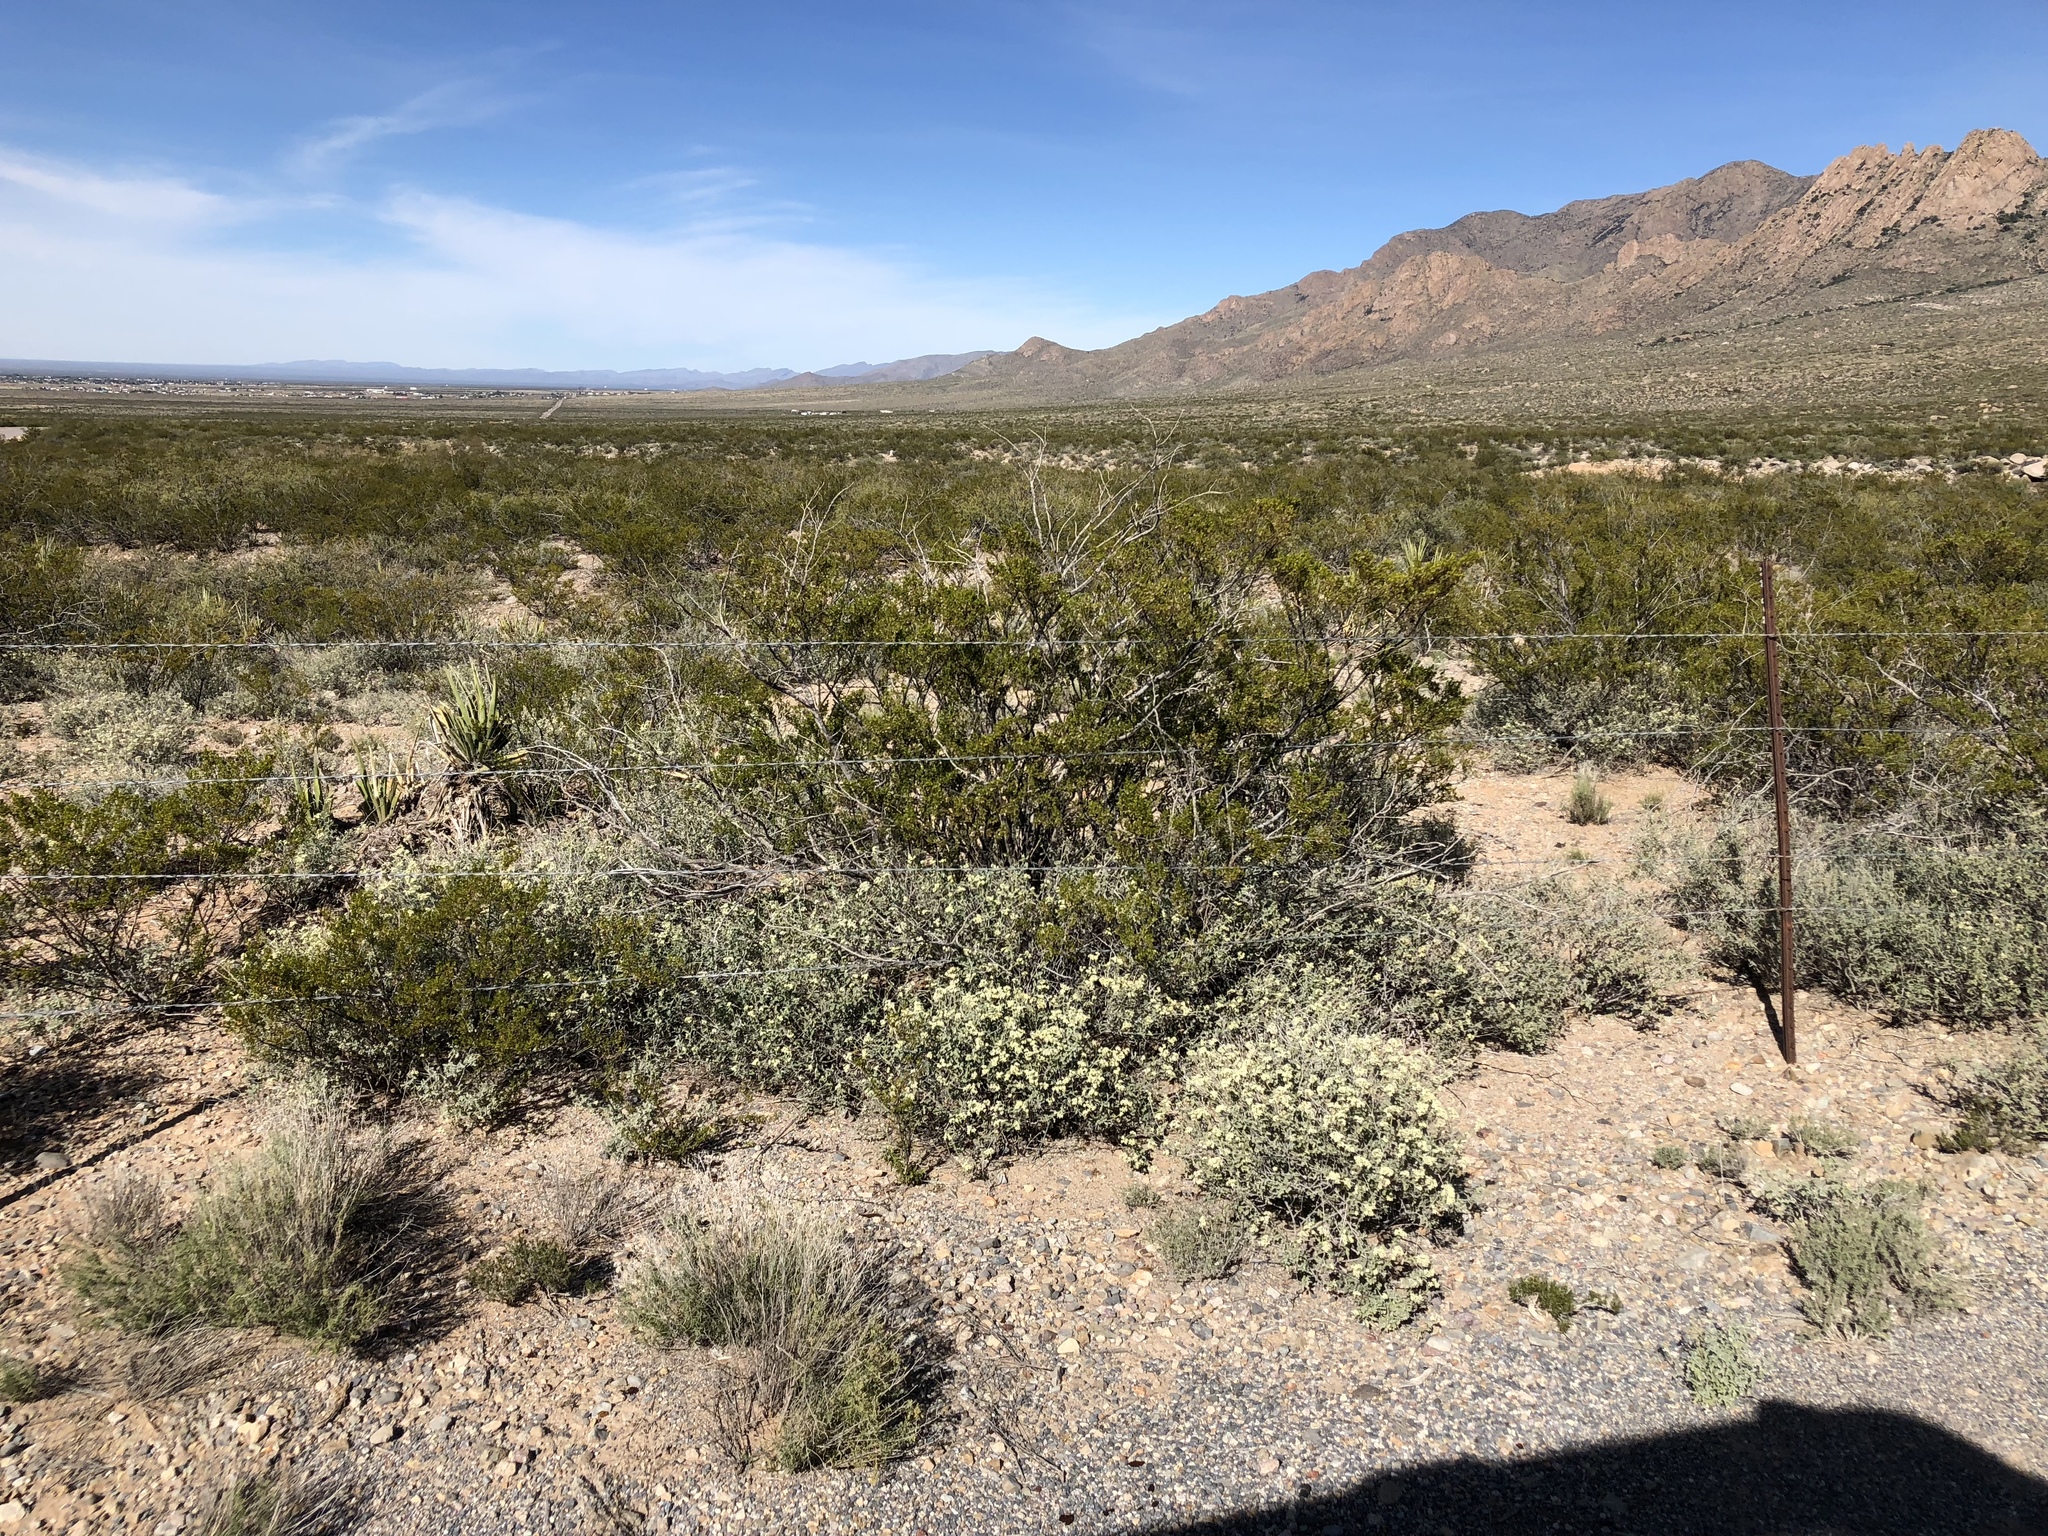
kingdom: Plantae
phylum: Tracheophyta
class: Magnoliopsida
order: Zygophyllales
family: Zygophyllaceae
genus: Larrea
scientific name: Larrea tridentata
